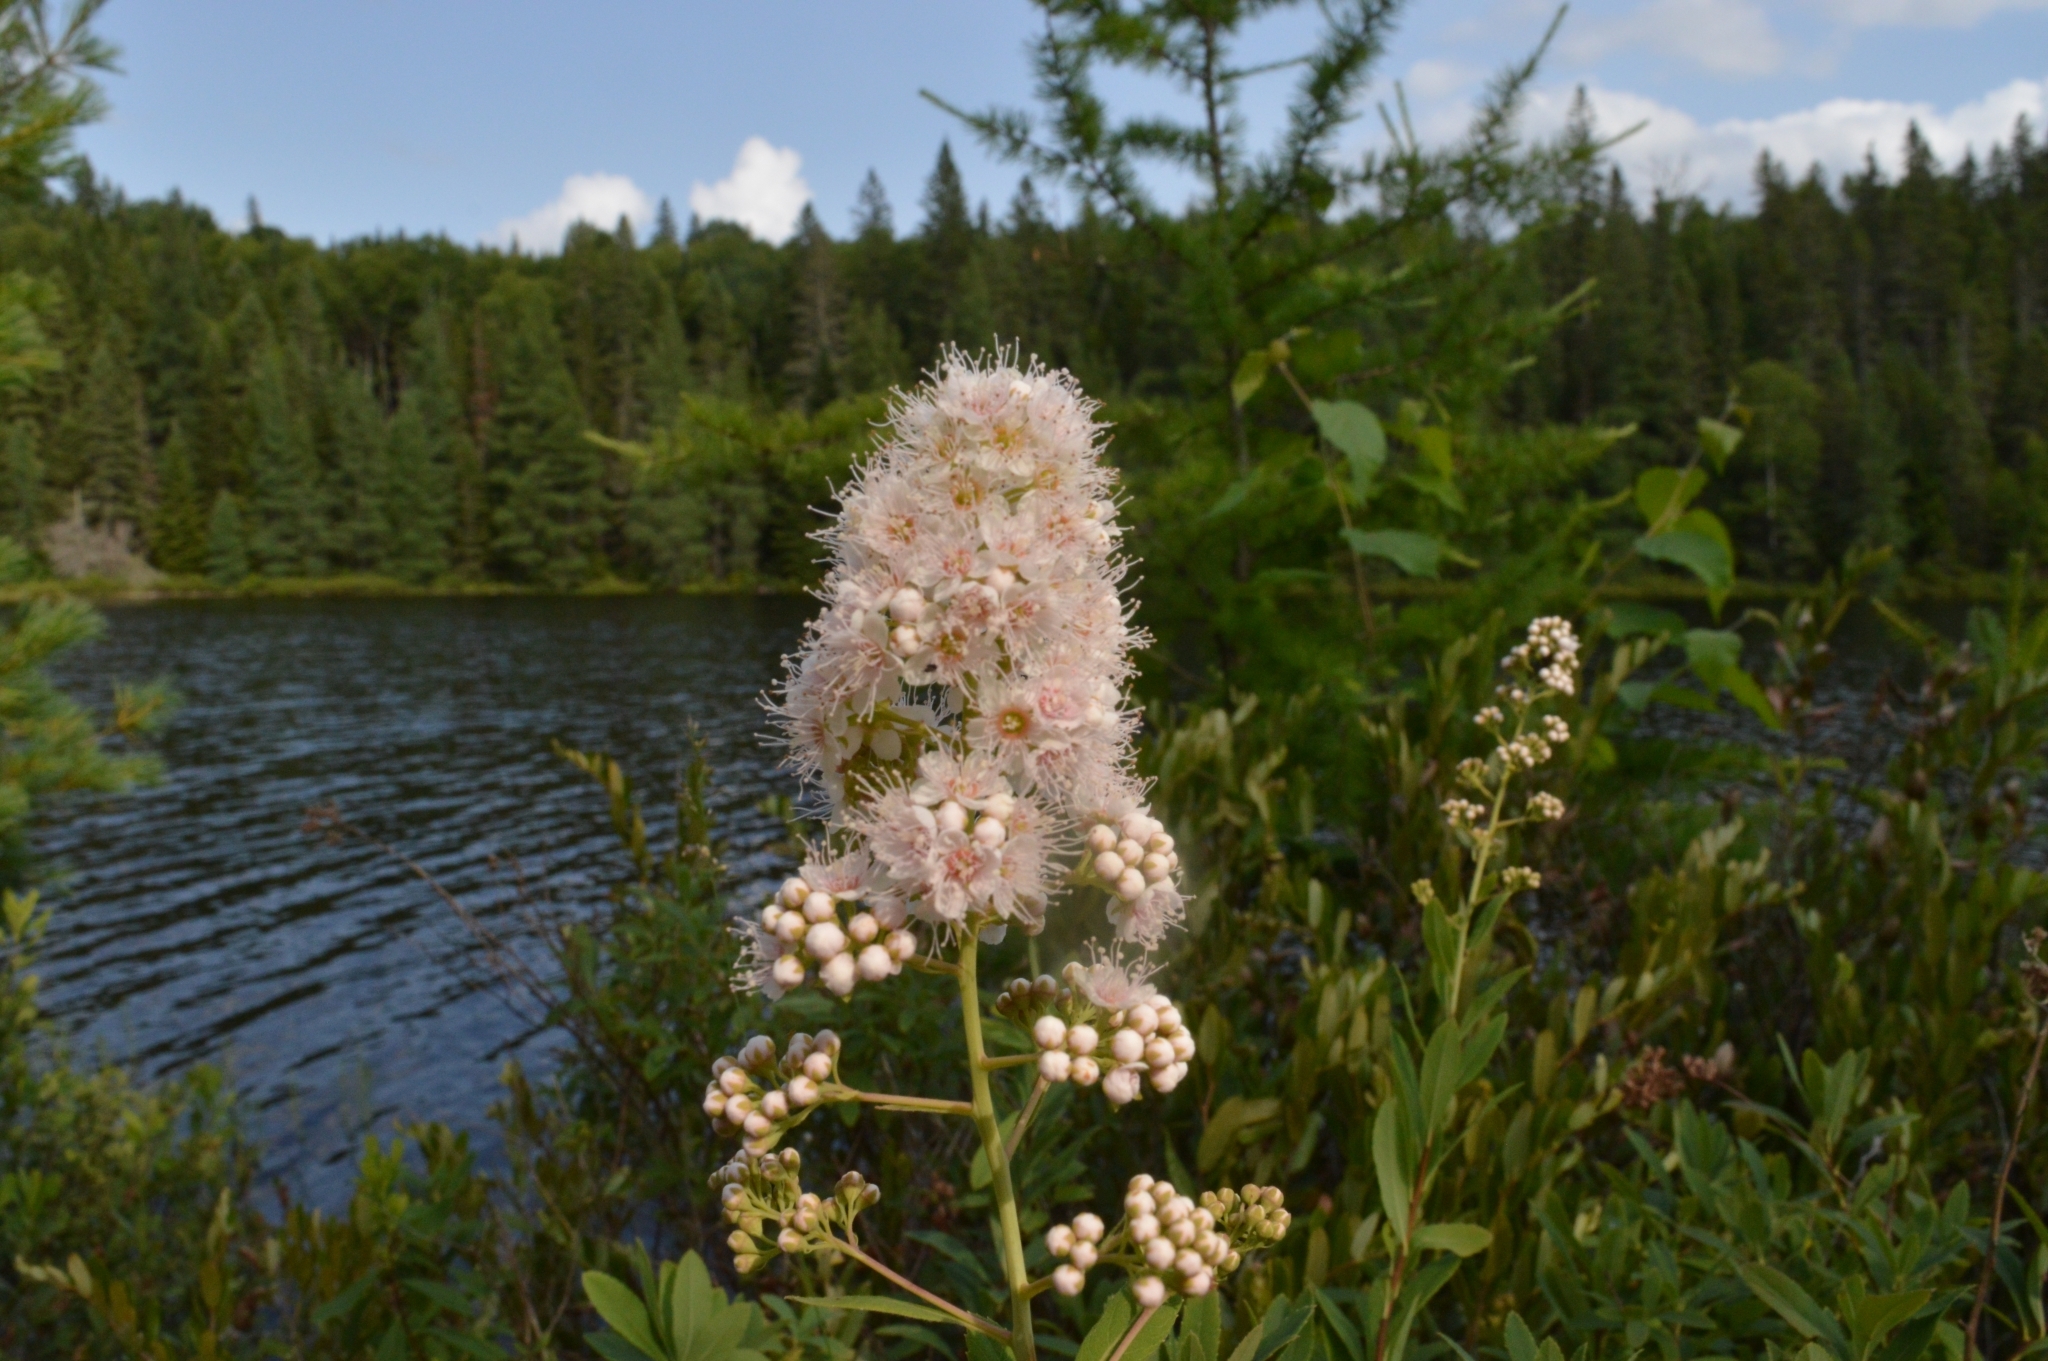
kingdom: Plantae
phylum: Tracheophyta
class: Magnoliopsida
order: Rosales
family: Rosaceae
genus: Spiraea
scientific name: Spiraea alba
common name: Pale bridewort
